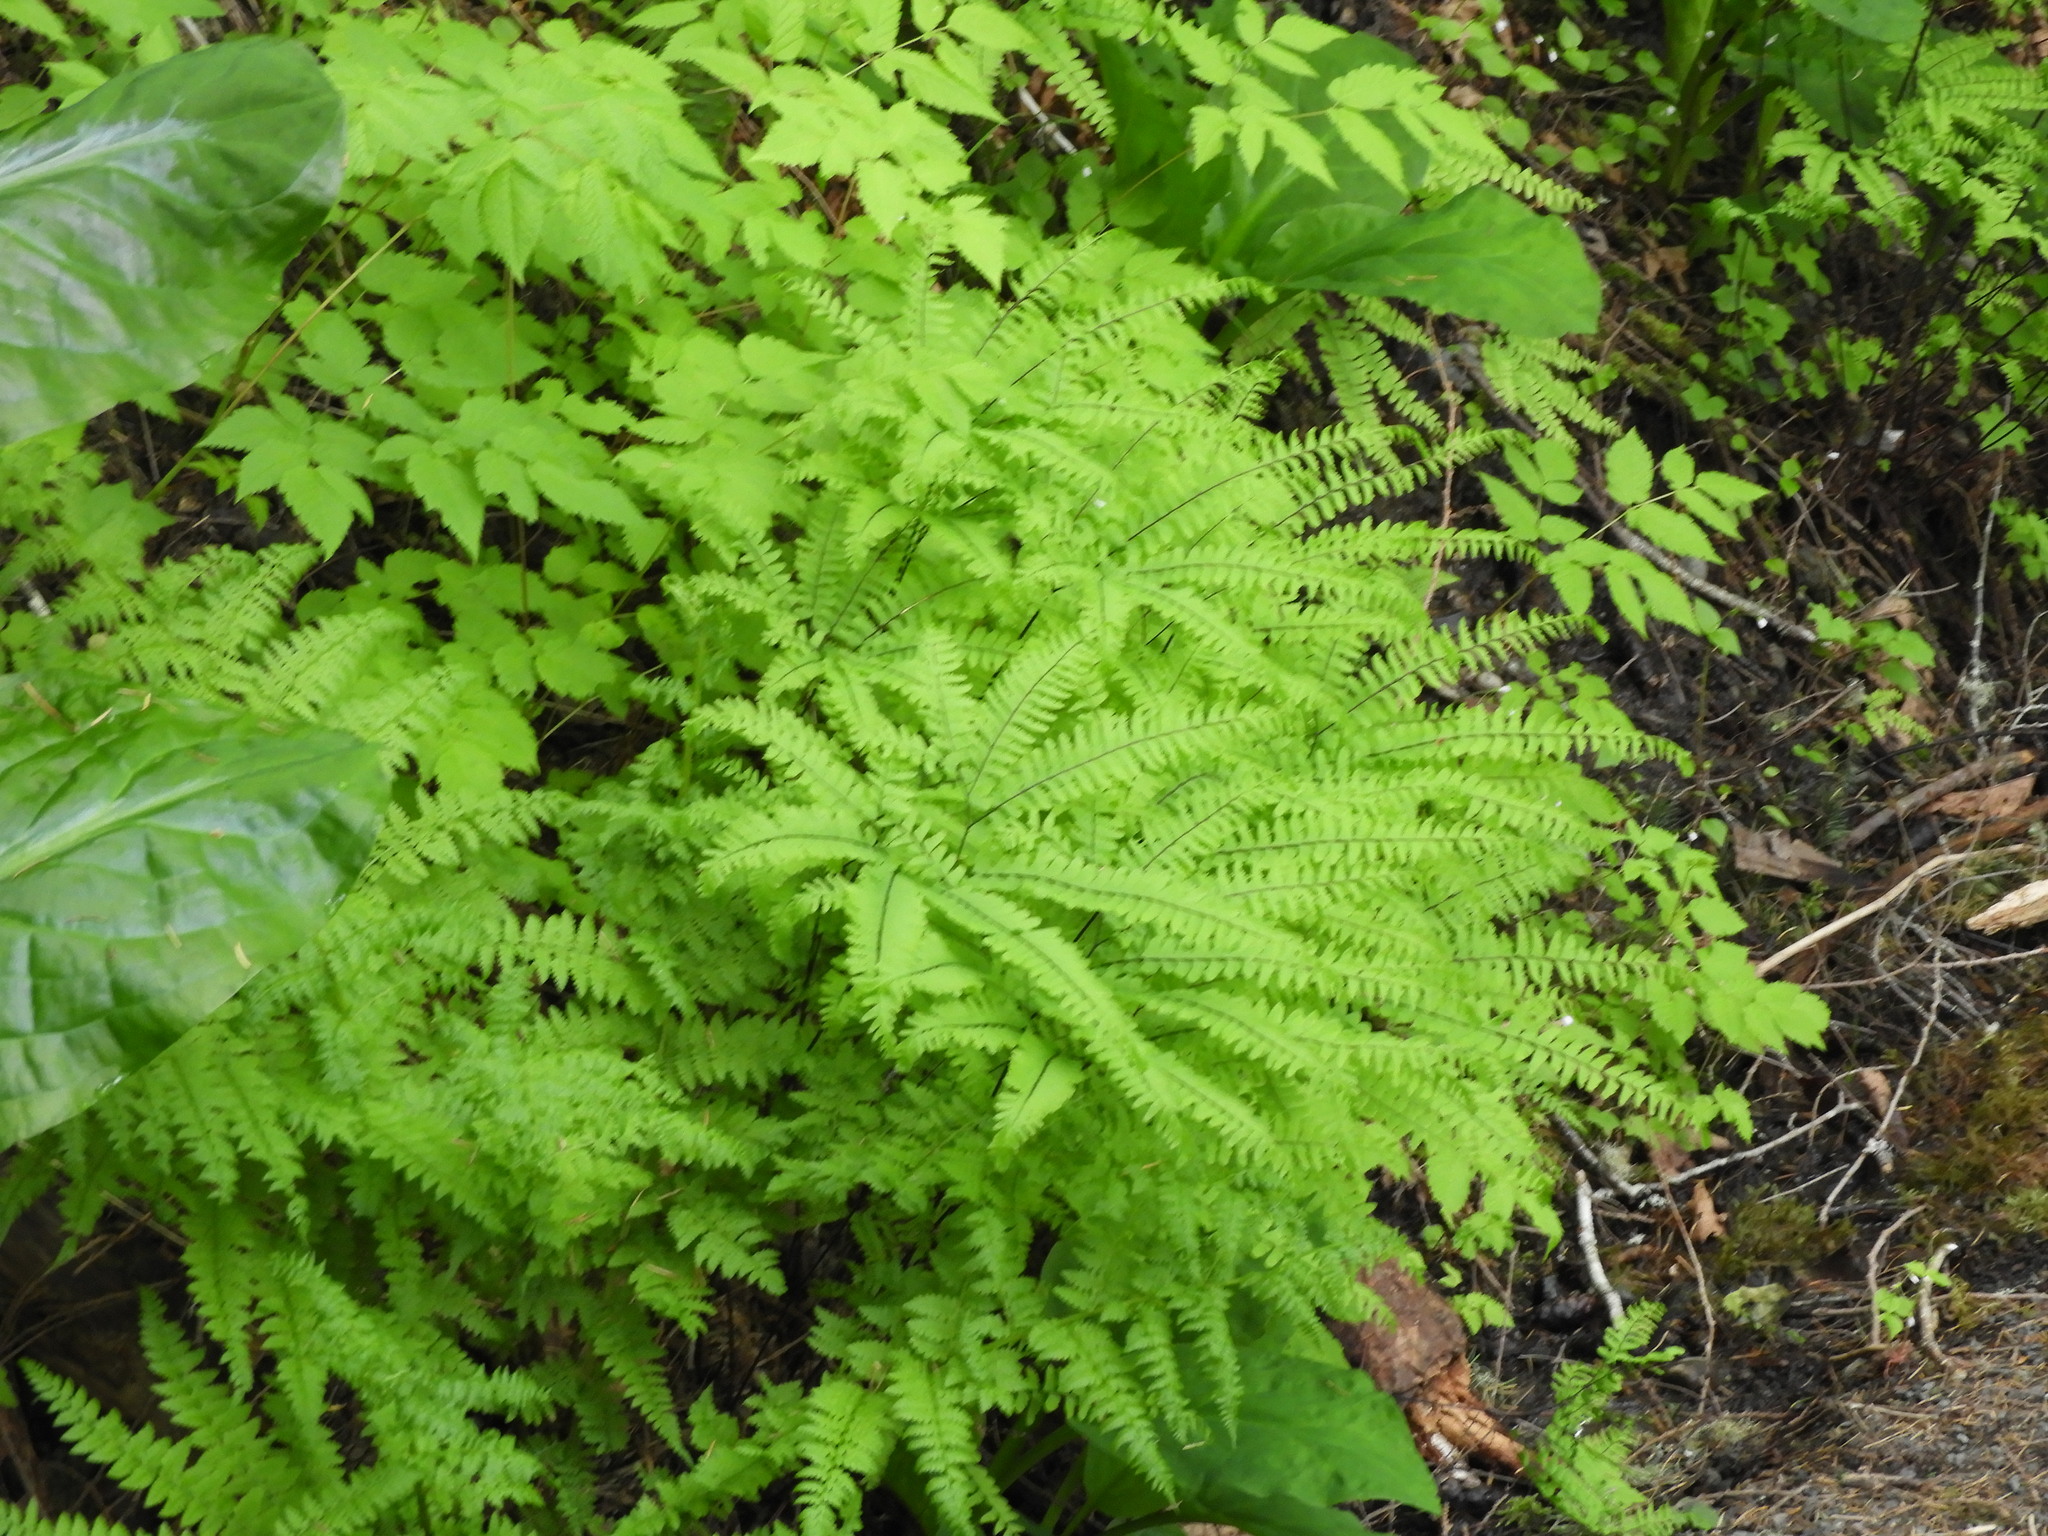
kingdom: Plantae
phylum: Tracheophyta
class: Polypodiopsida
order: Polypodiales
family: Pteridaceae
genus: Adiantum
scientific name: Adiantum aleuticum
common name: Aleutian maidenhair fern
